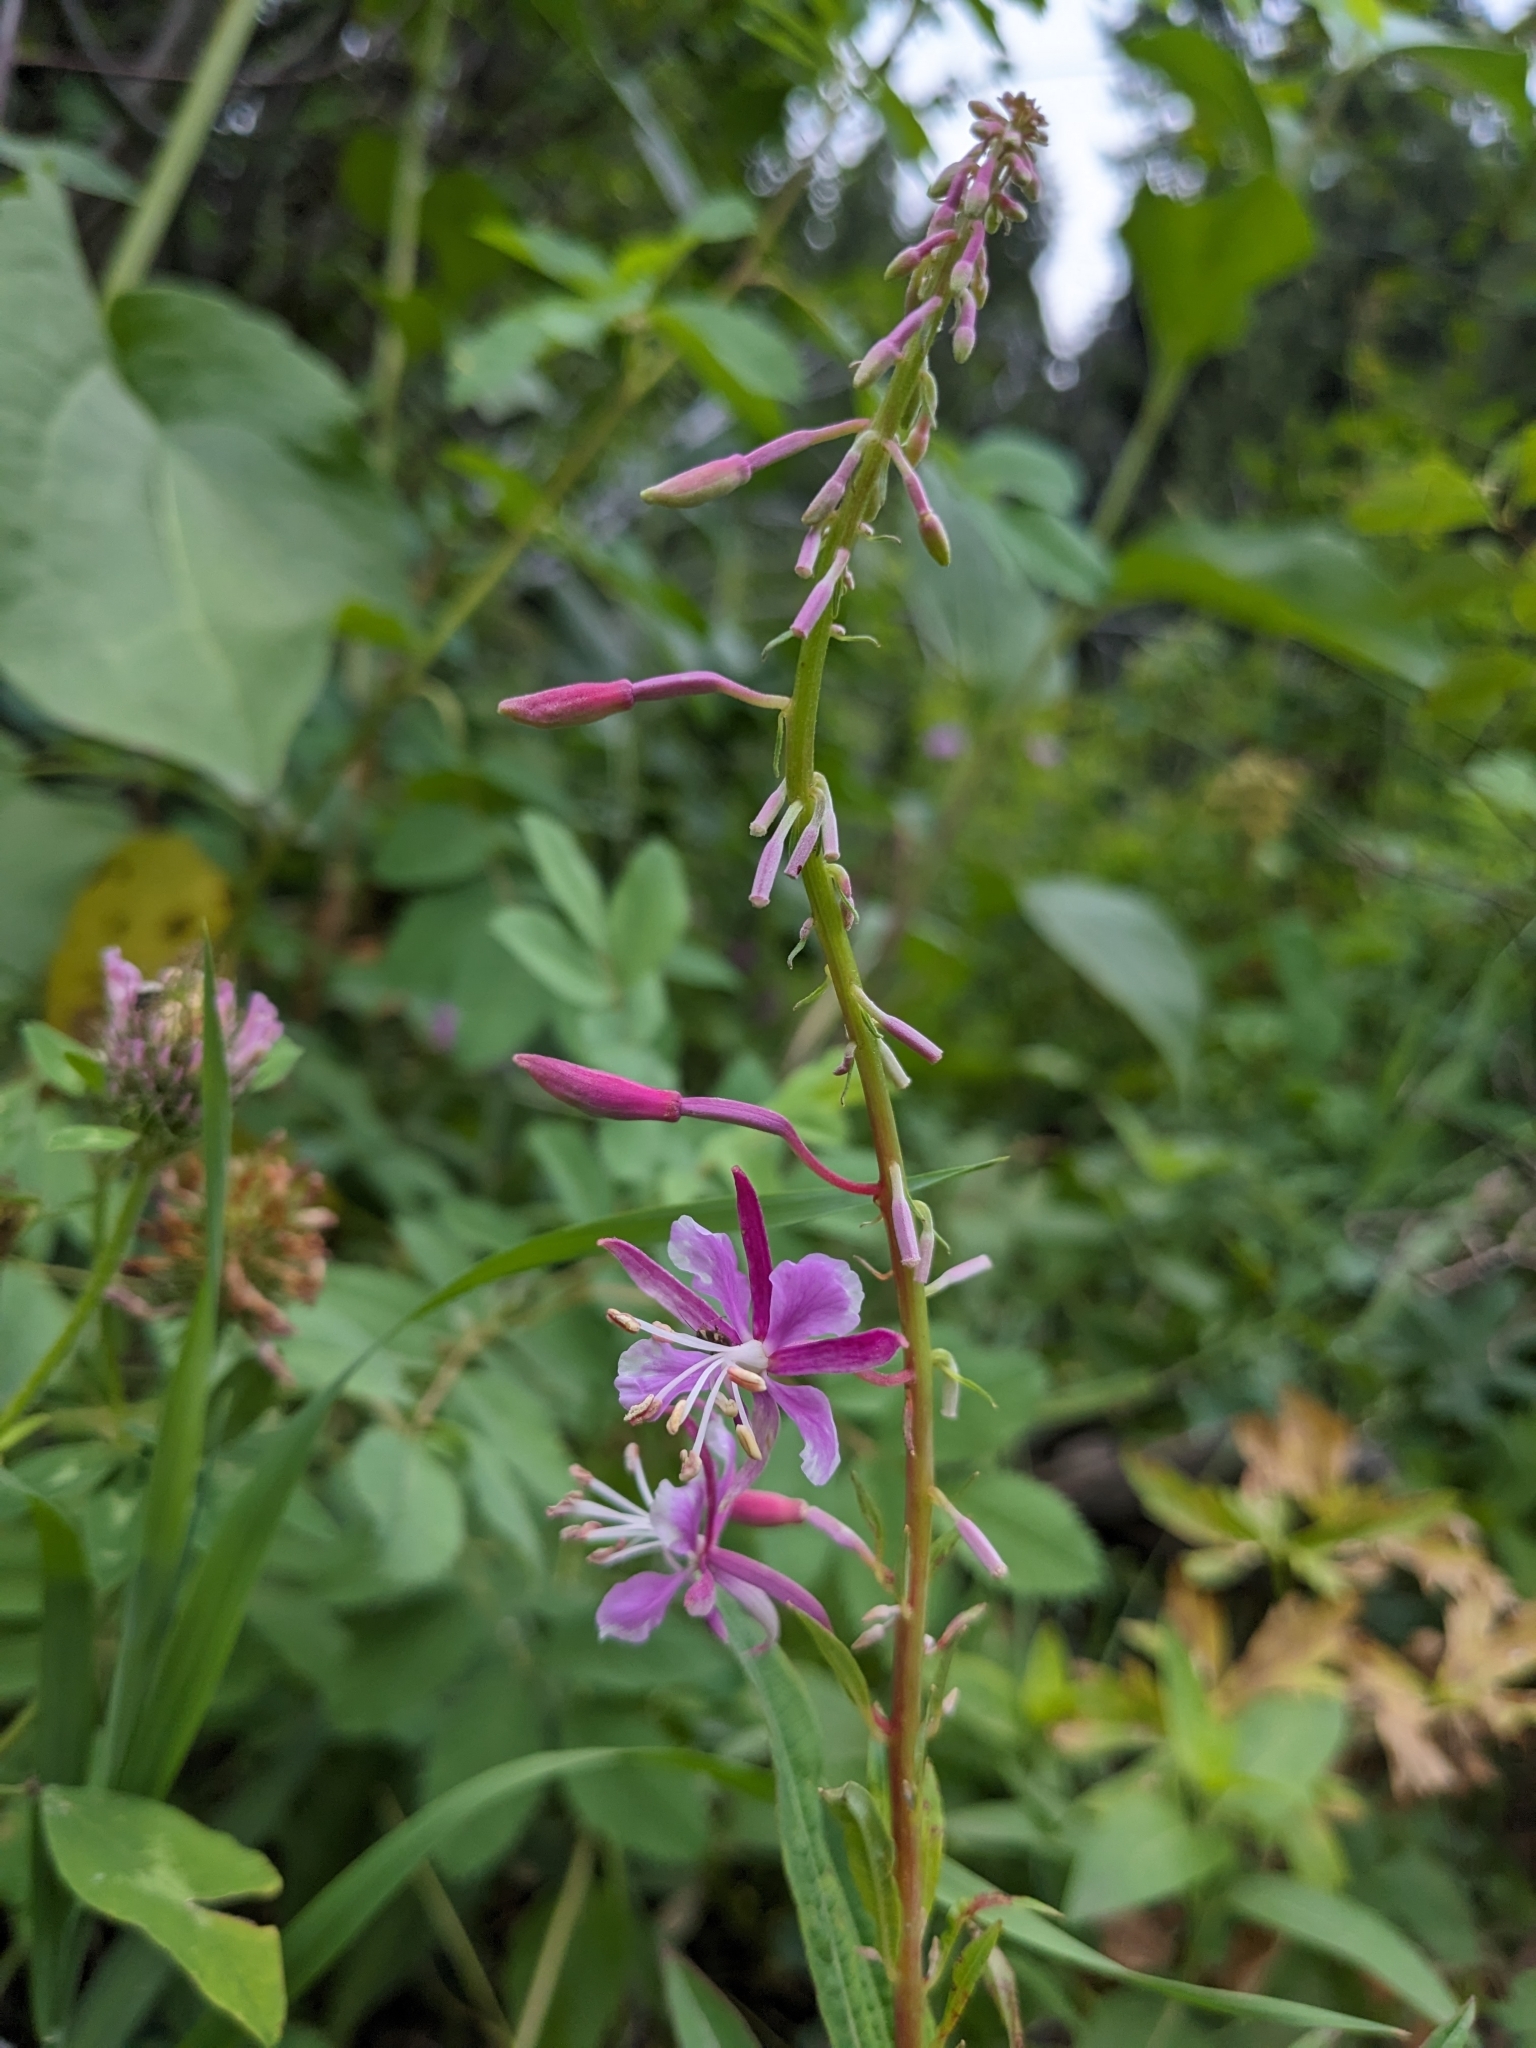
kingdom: Plantae
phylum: Tracheophyta
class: Magnoliopsida
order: Myrtales
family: Onagraceae
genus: Chamaenerion
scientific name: Chamaenerion angustifolium
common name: Fireweed
